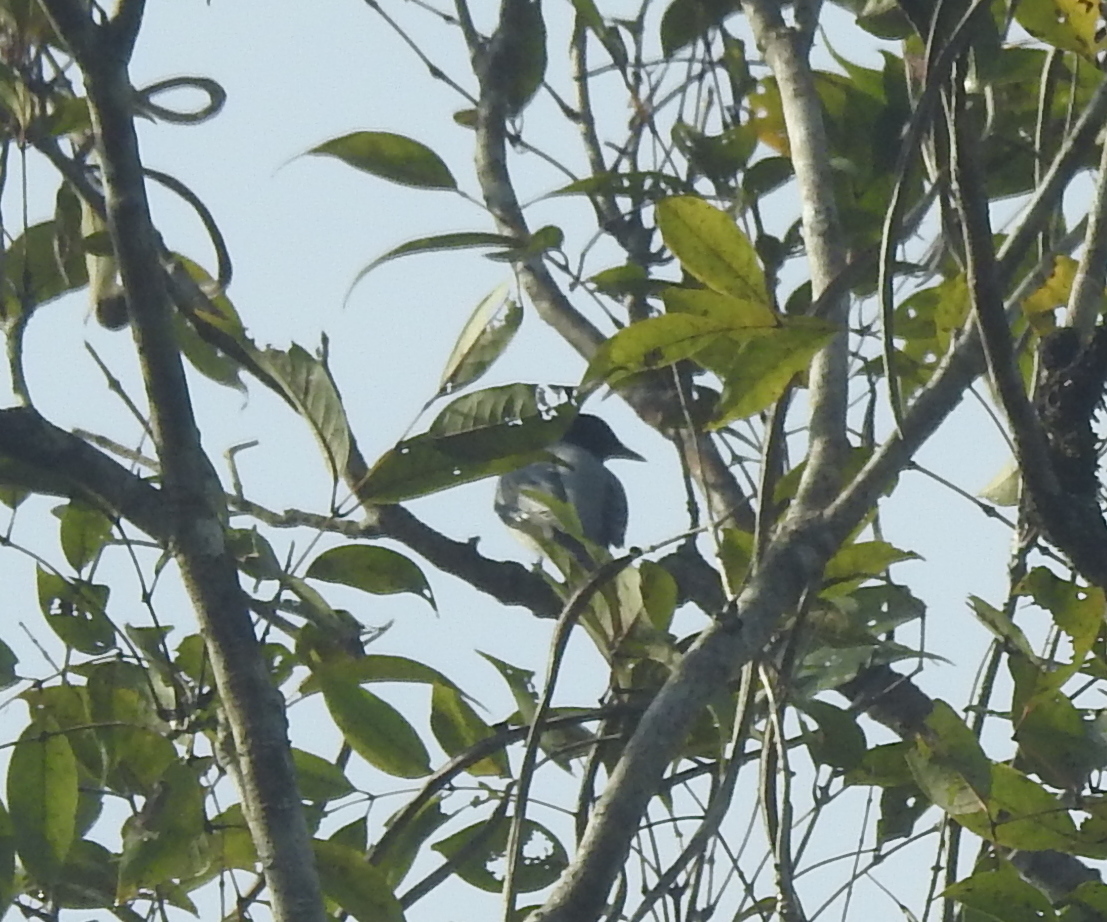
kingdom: Animalia
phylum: Chordata
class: Aves
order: Passeriformes
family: Campephagidae
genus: Coracina
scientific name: Coracina melanoptera
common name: Black-headed cuckooshrike
